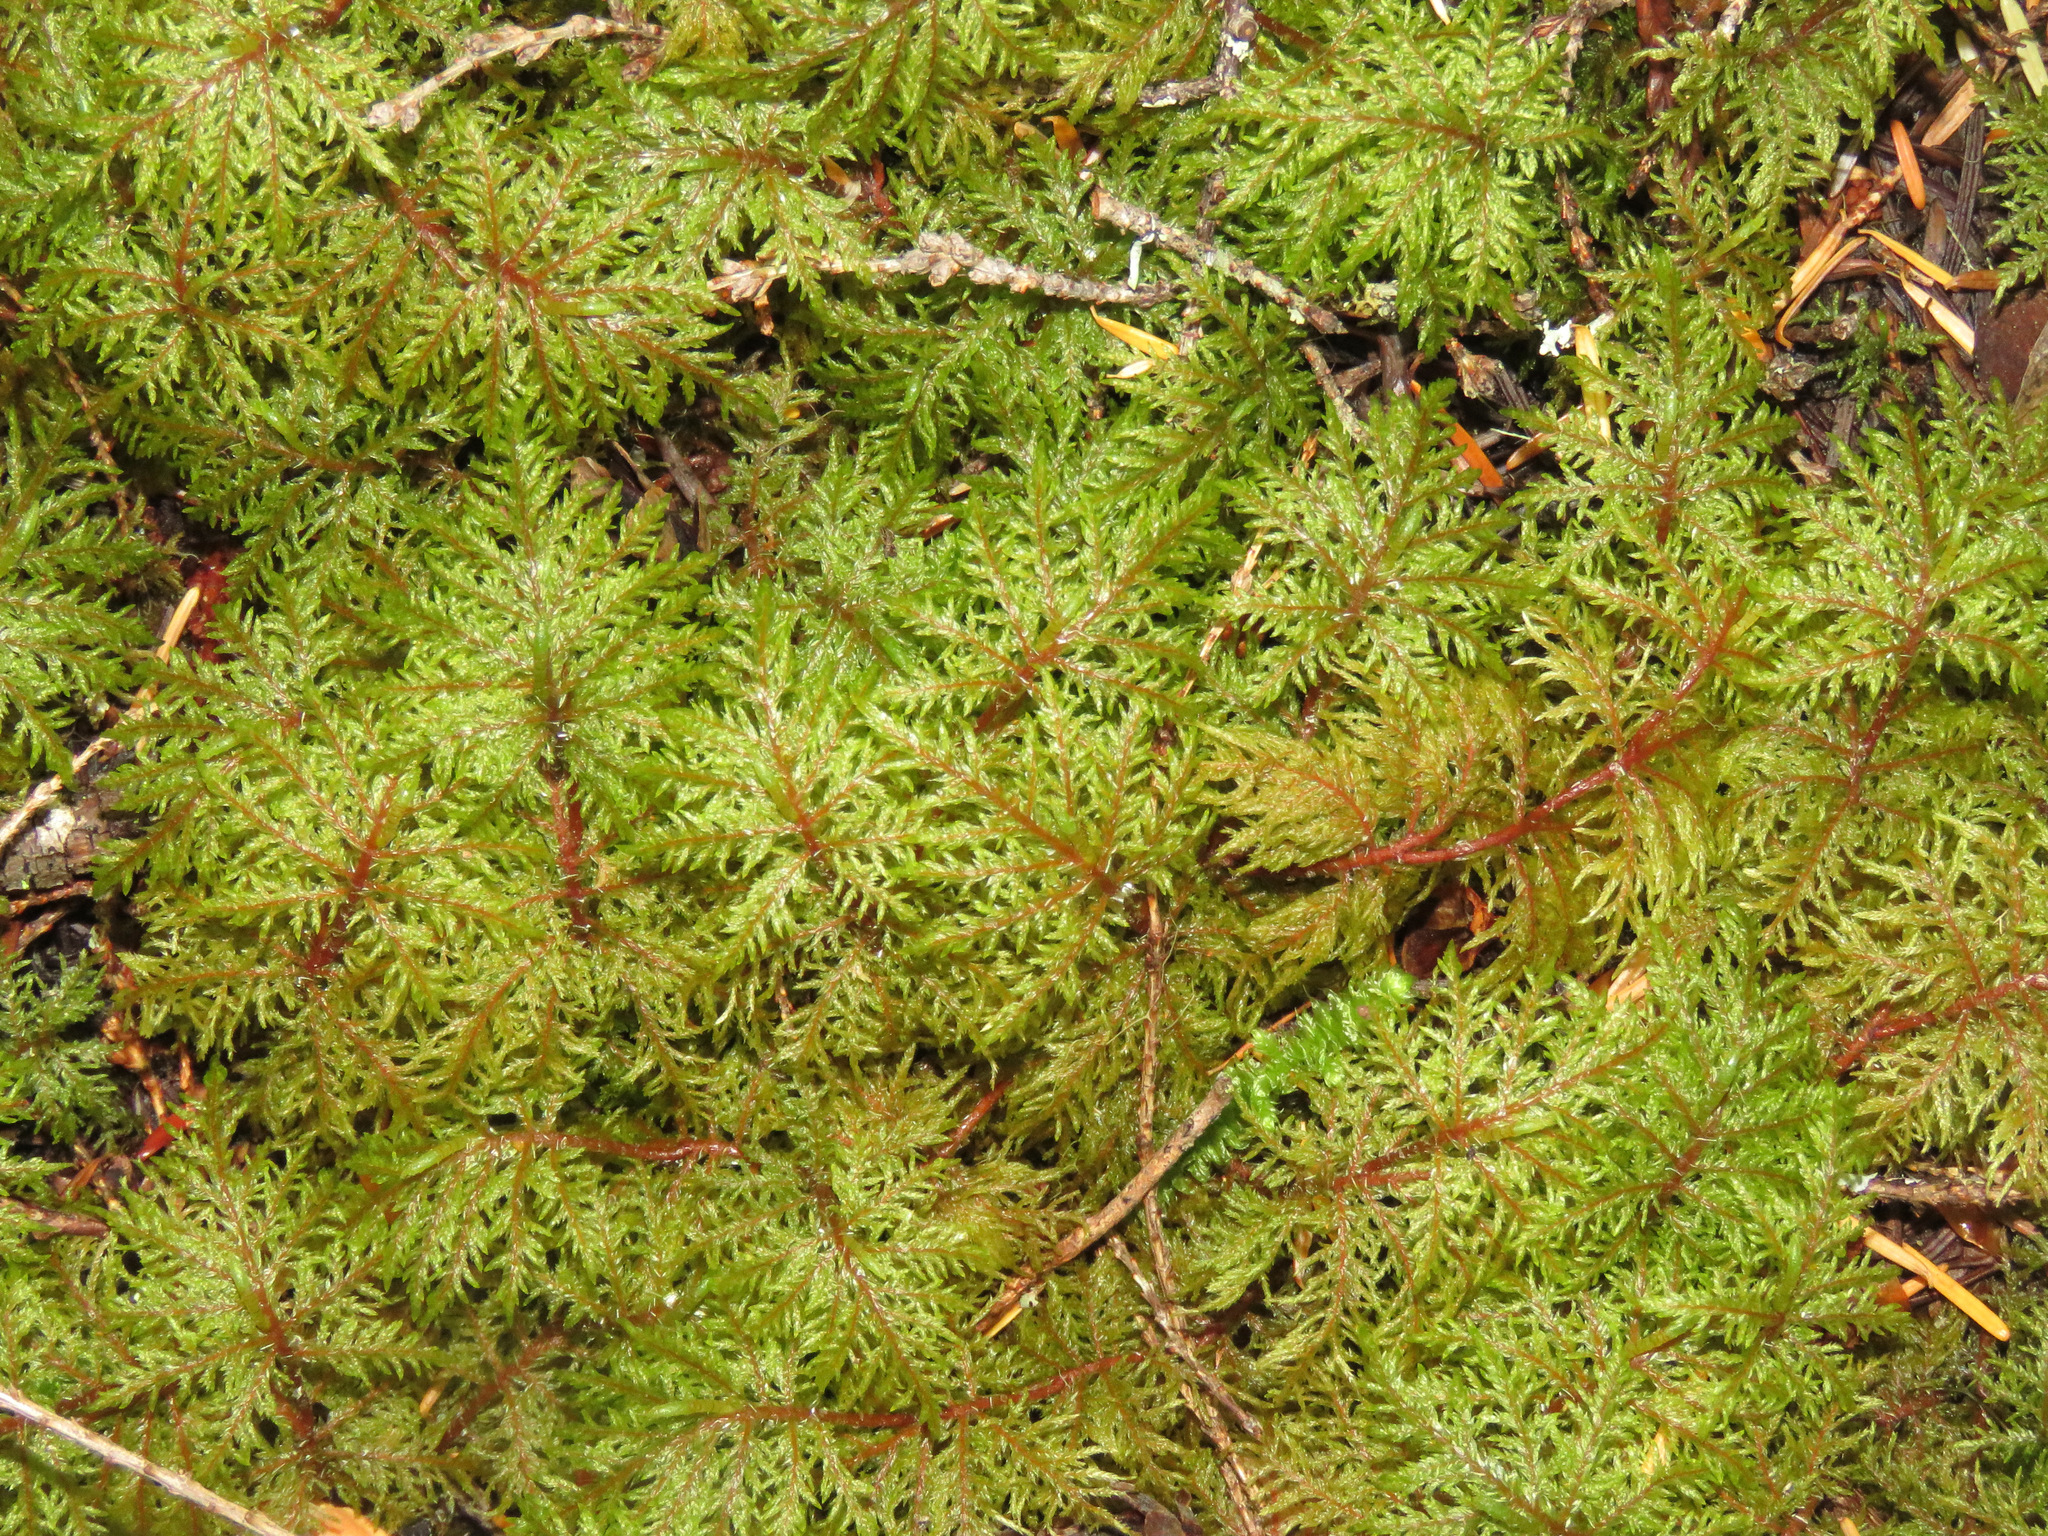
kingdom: Plantae
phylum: Bryophyta
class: Bryopsida
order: Hypnales
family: Hylocomiaceae
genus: Hylocomium
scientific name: Hylocomium splendens
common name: Stairstep moss
